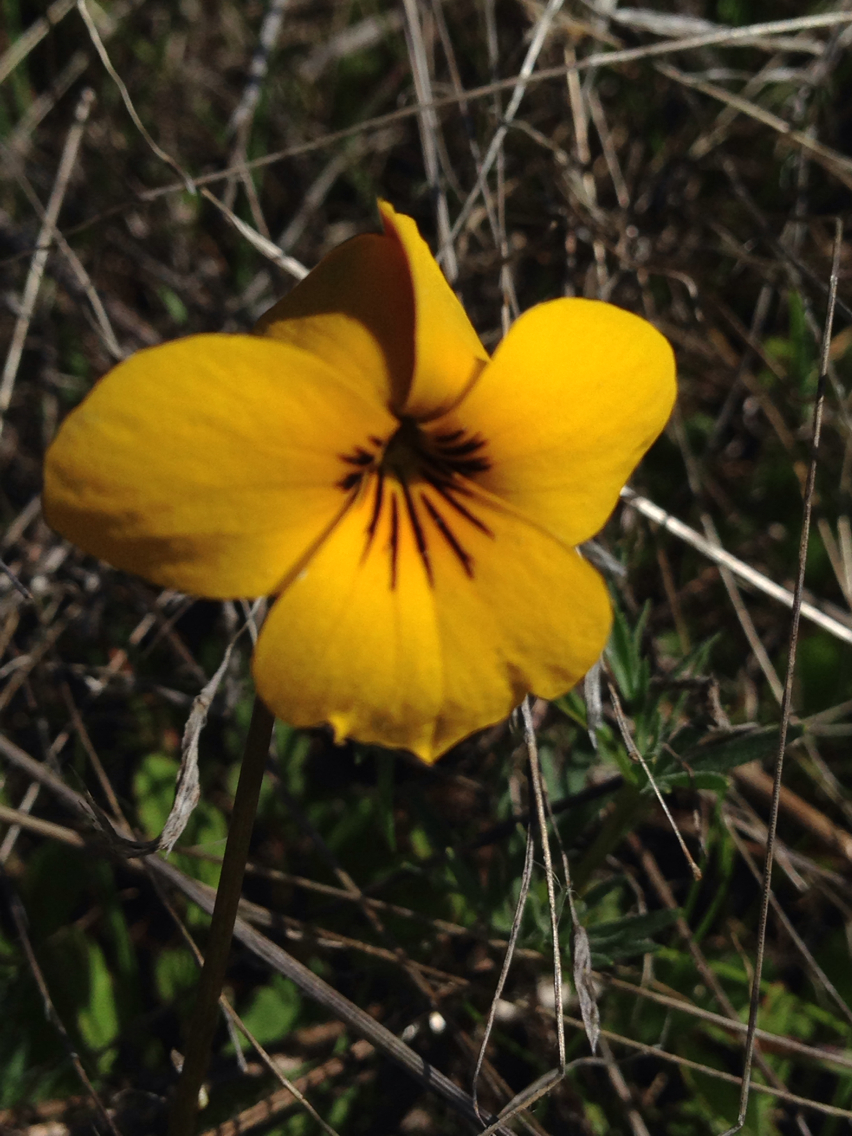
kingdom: Plantae
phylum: Tracheophyta
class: Magnoliopsida
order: Malpighiales
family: Violaceae
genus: Viola
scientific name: Viola pedunculata
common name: California golden violet
